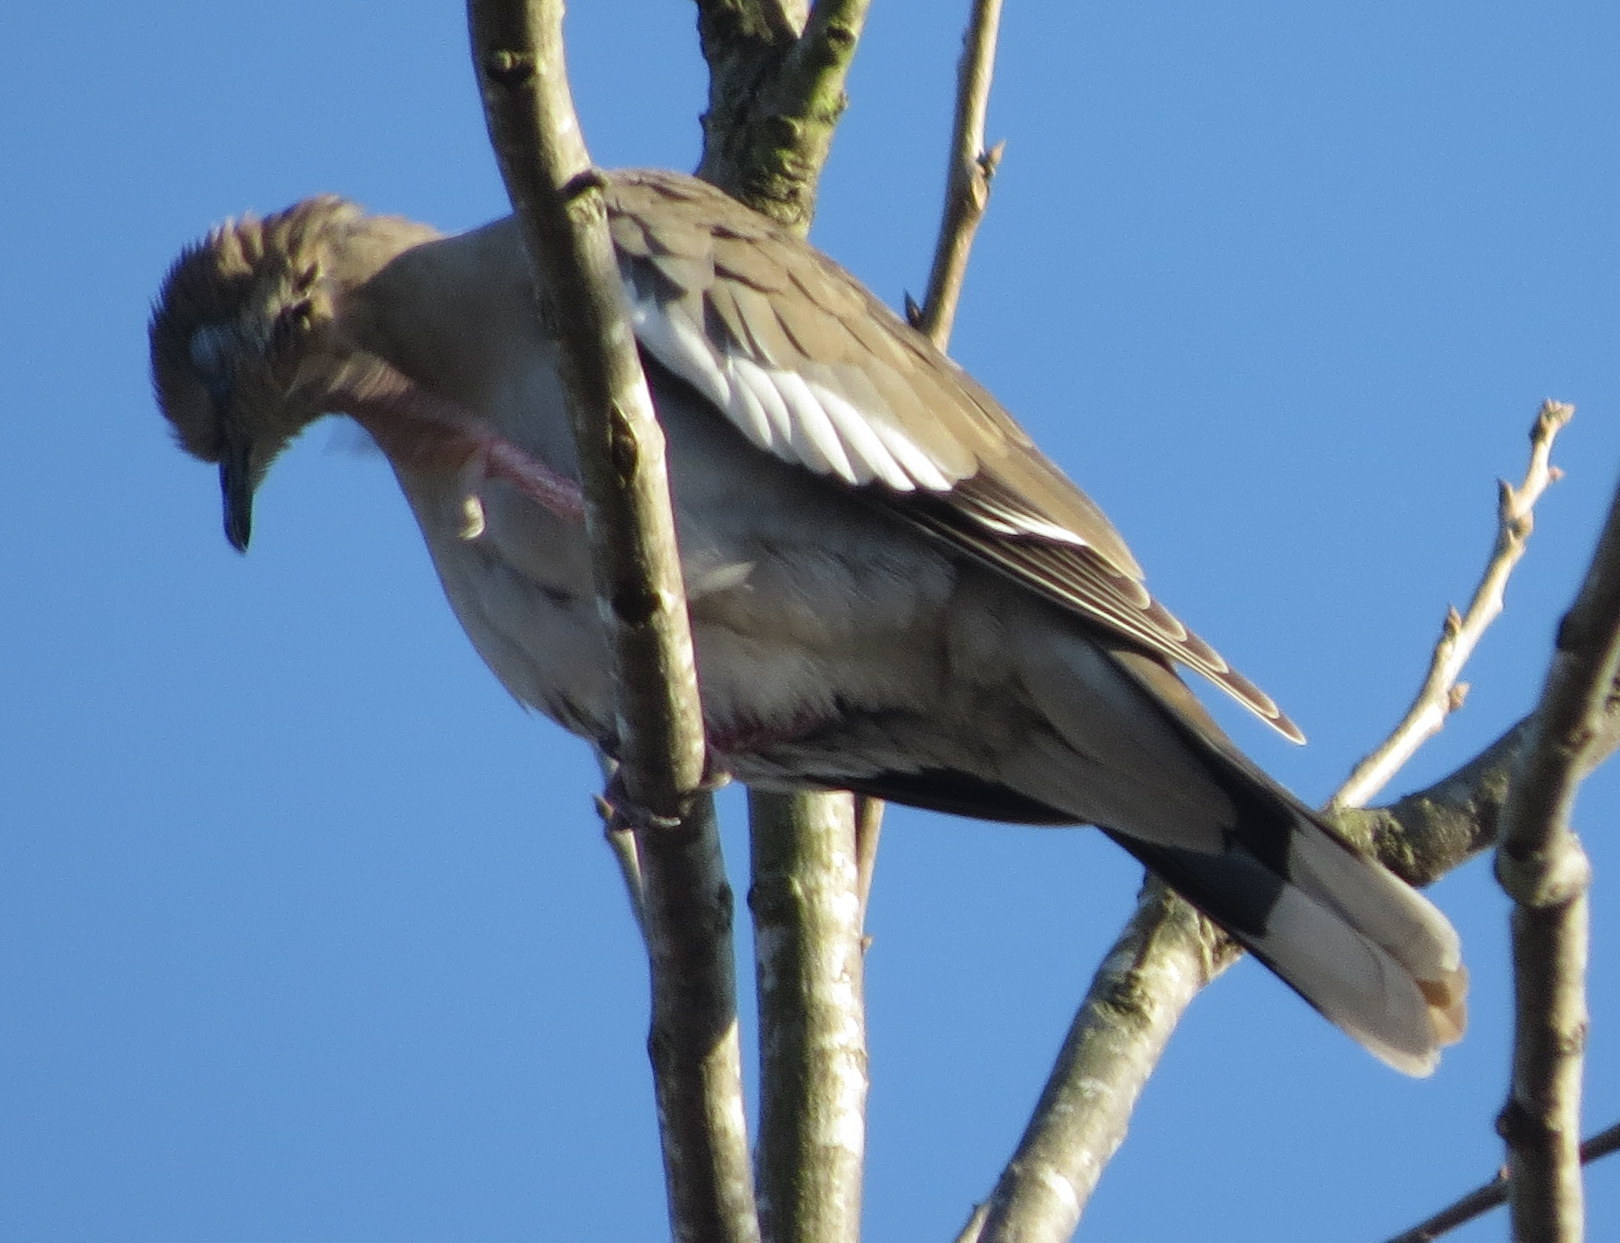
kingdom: Animalia
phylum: Chordata
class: Aves
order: Columbiformes
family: Columbidae
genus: Zenaida
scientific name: Zenaida asiatica
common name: White-winged dove
